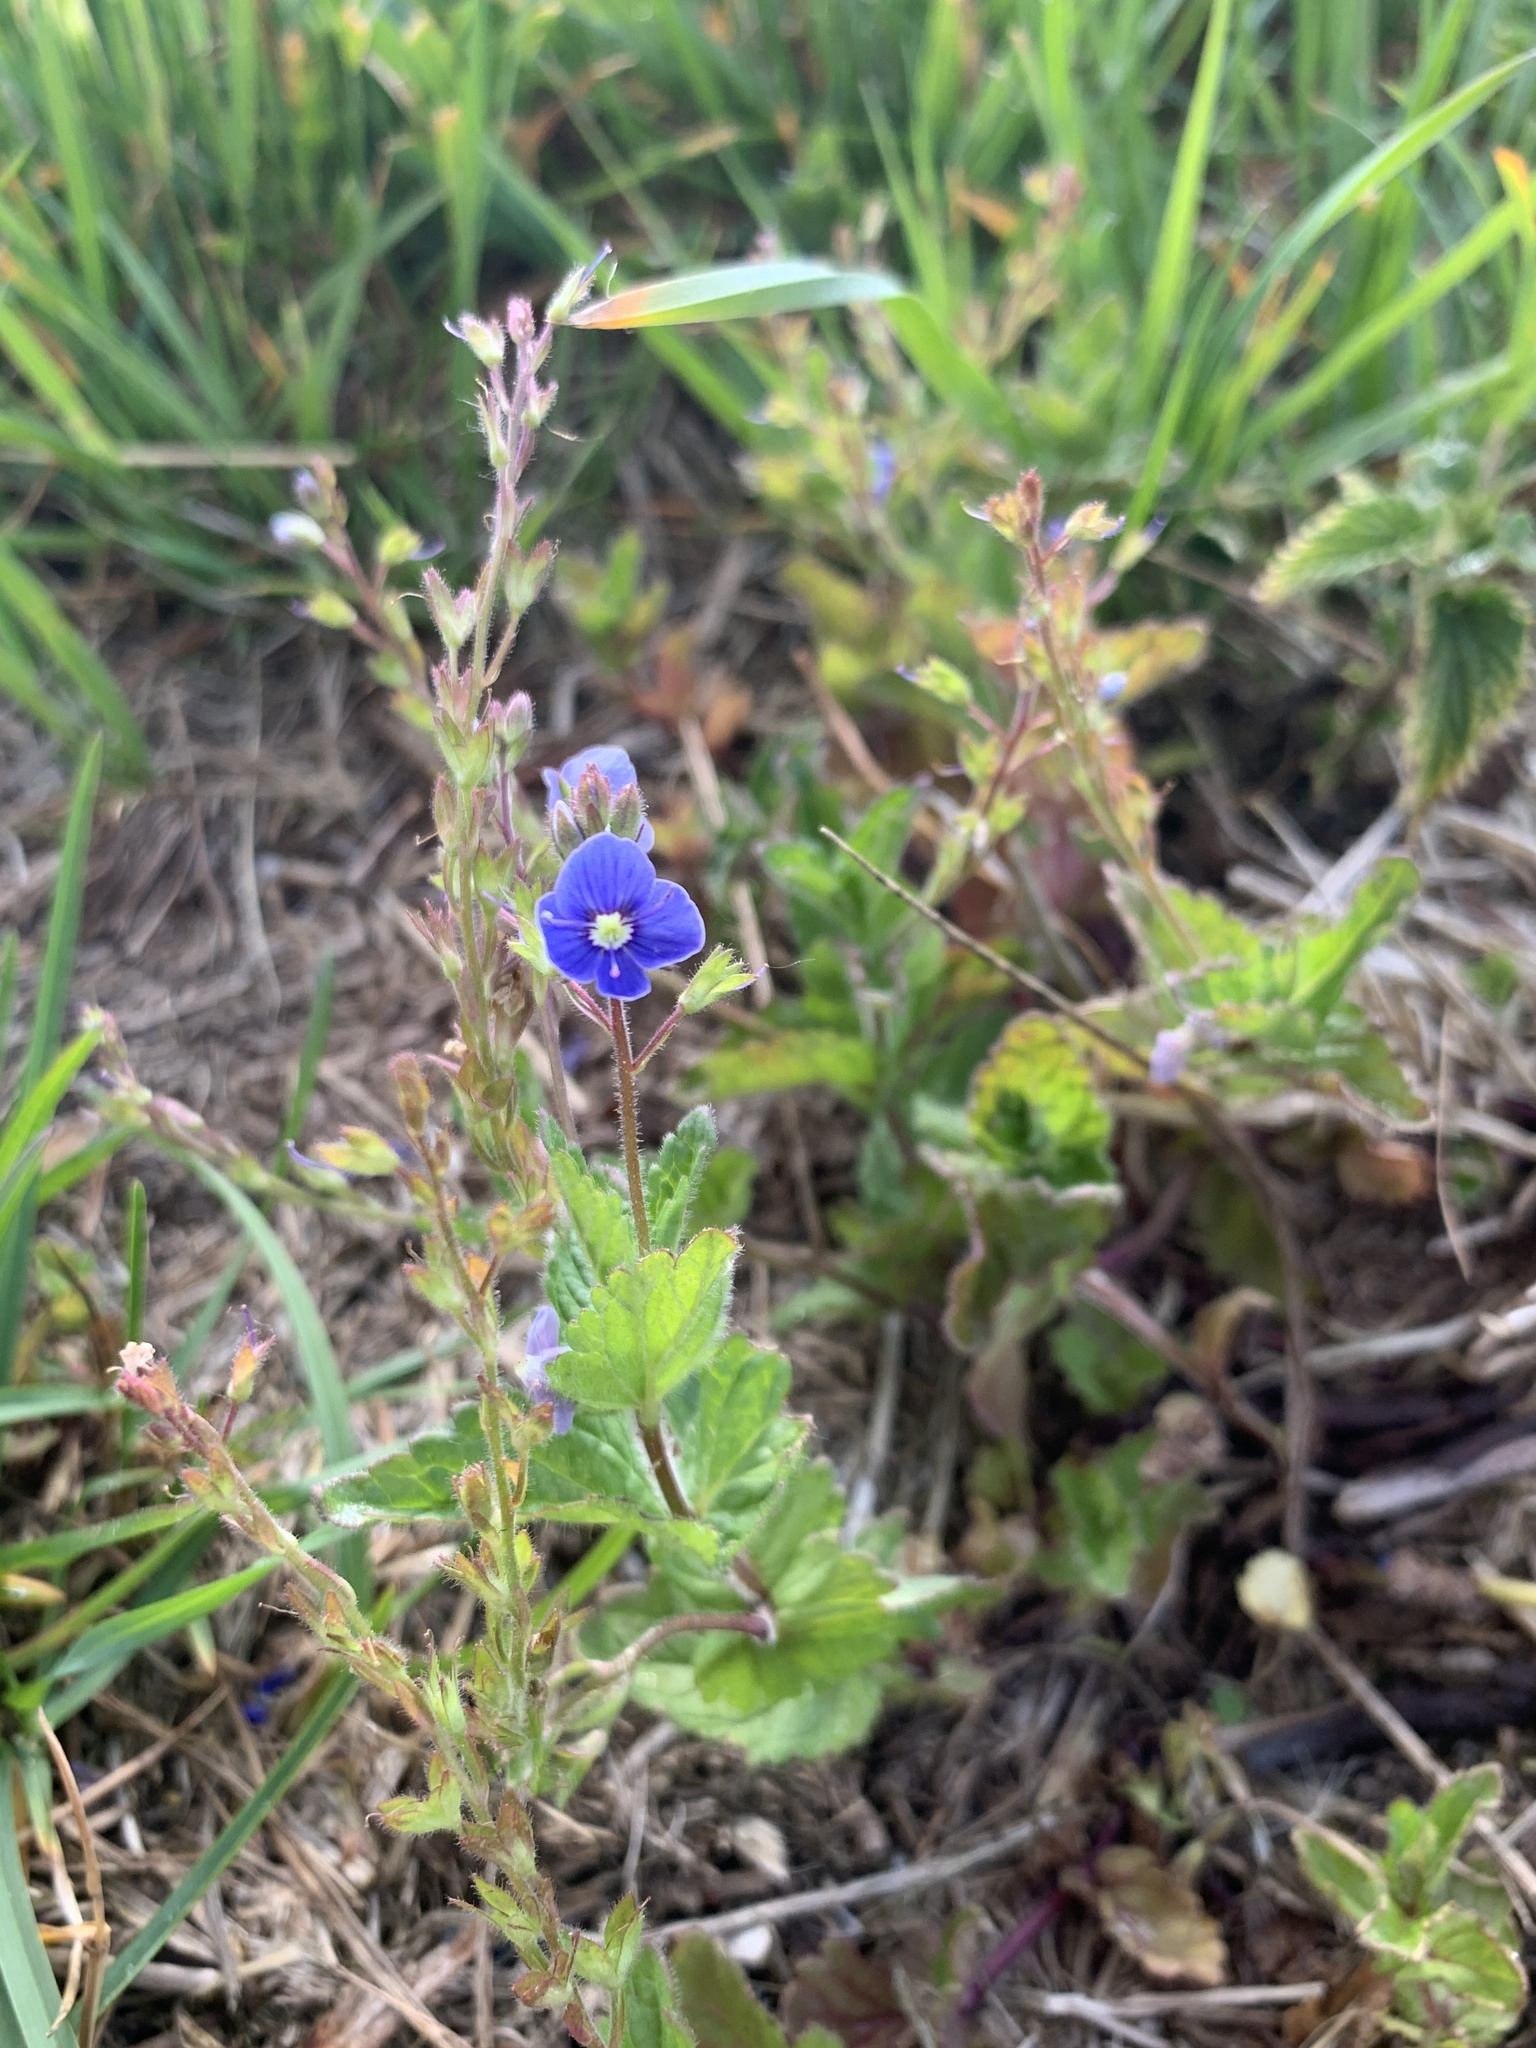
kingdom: Plantae
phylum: Tracheophyta
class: Magnoliopsida
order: Lamiales
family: Plantaginaceae
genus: Veronica
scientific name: Veronica chamaedrys
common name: Germander speedwell
